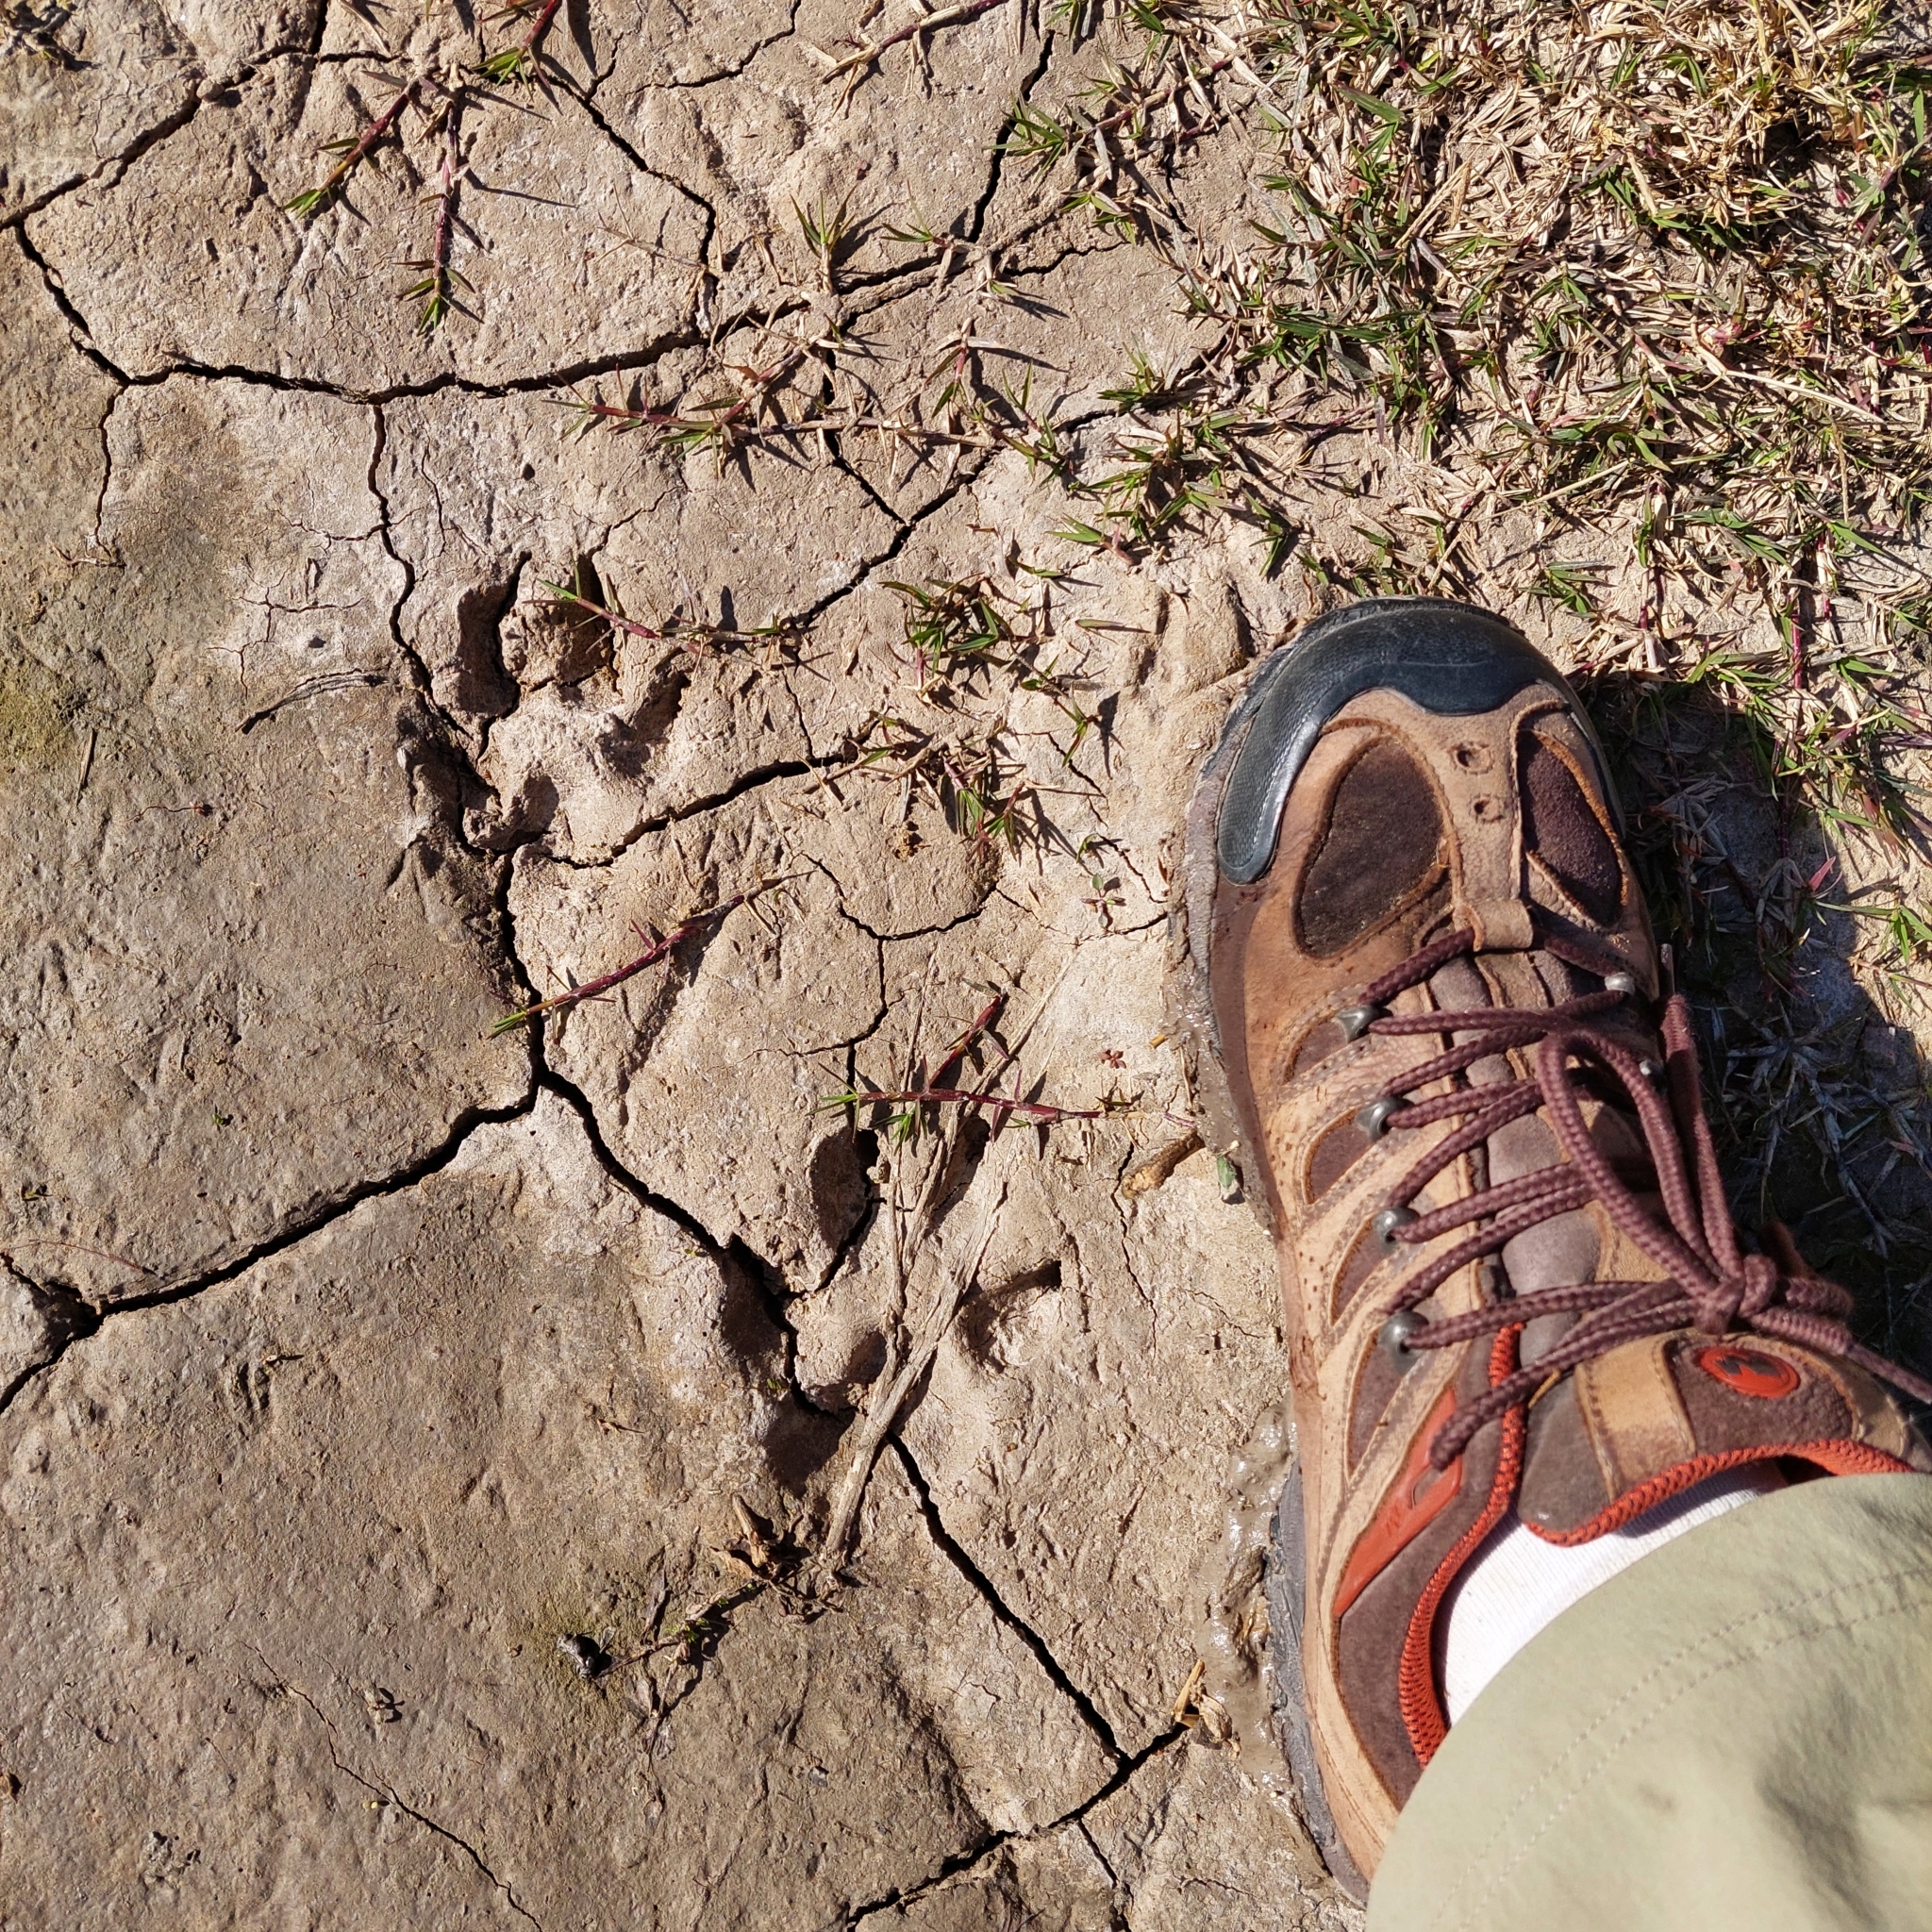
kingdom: Animalia
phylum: Chordata
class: Mammalia
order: Carnivora
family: Canidae
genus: Canis
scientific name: Canis lupus
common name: Gray wolf
